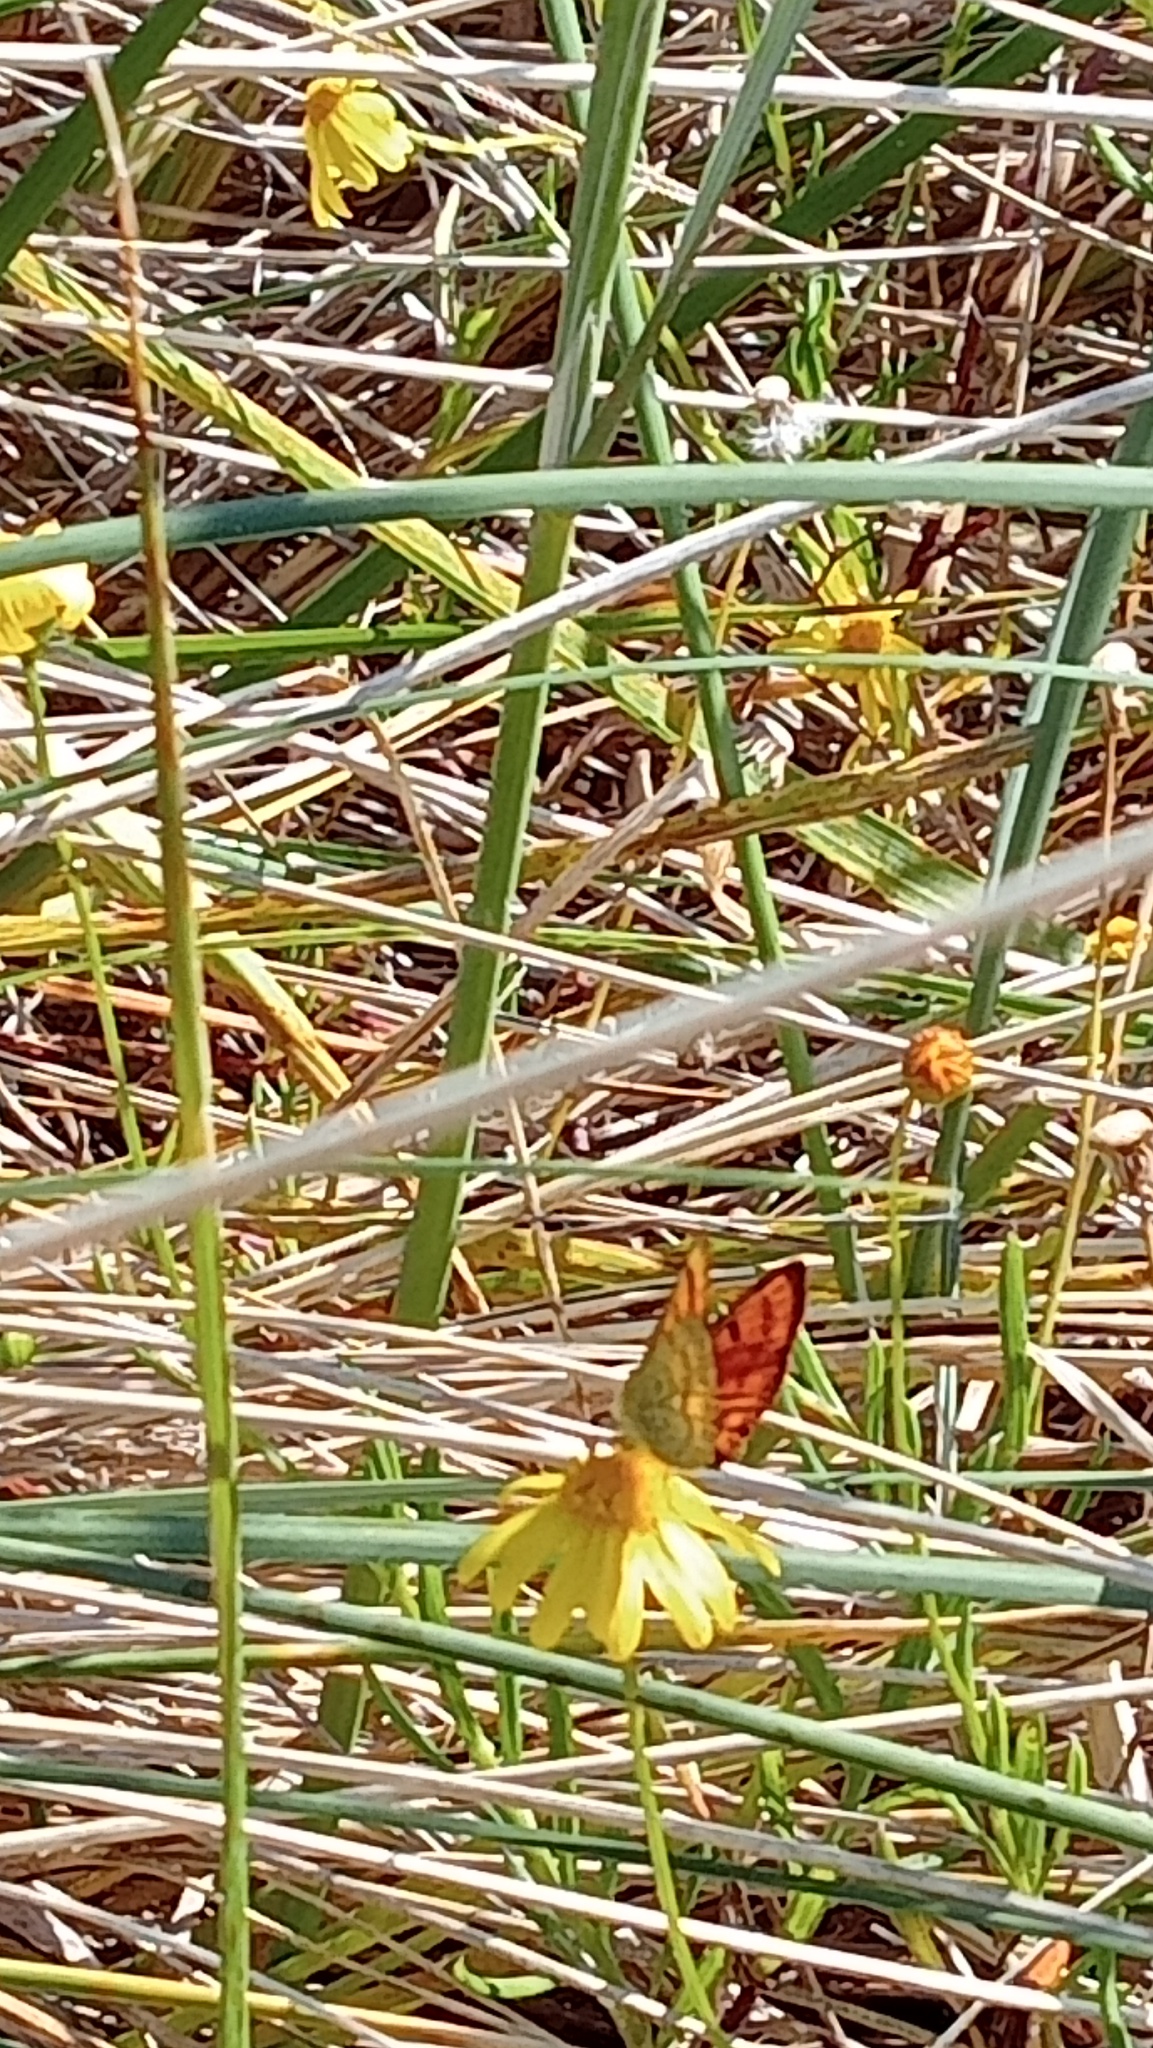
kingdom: Animalia
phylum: Arthropoda
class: Insecta
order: Lepidoptera
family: Lycaenidae
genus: Lycaena
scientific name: Lycaena salustius
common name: North island coastal copper
